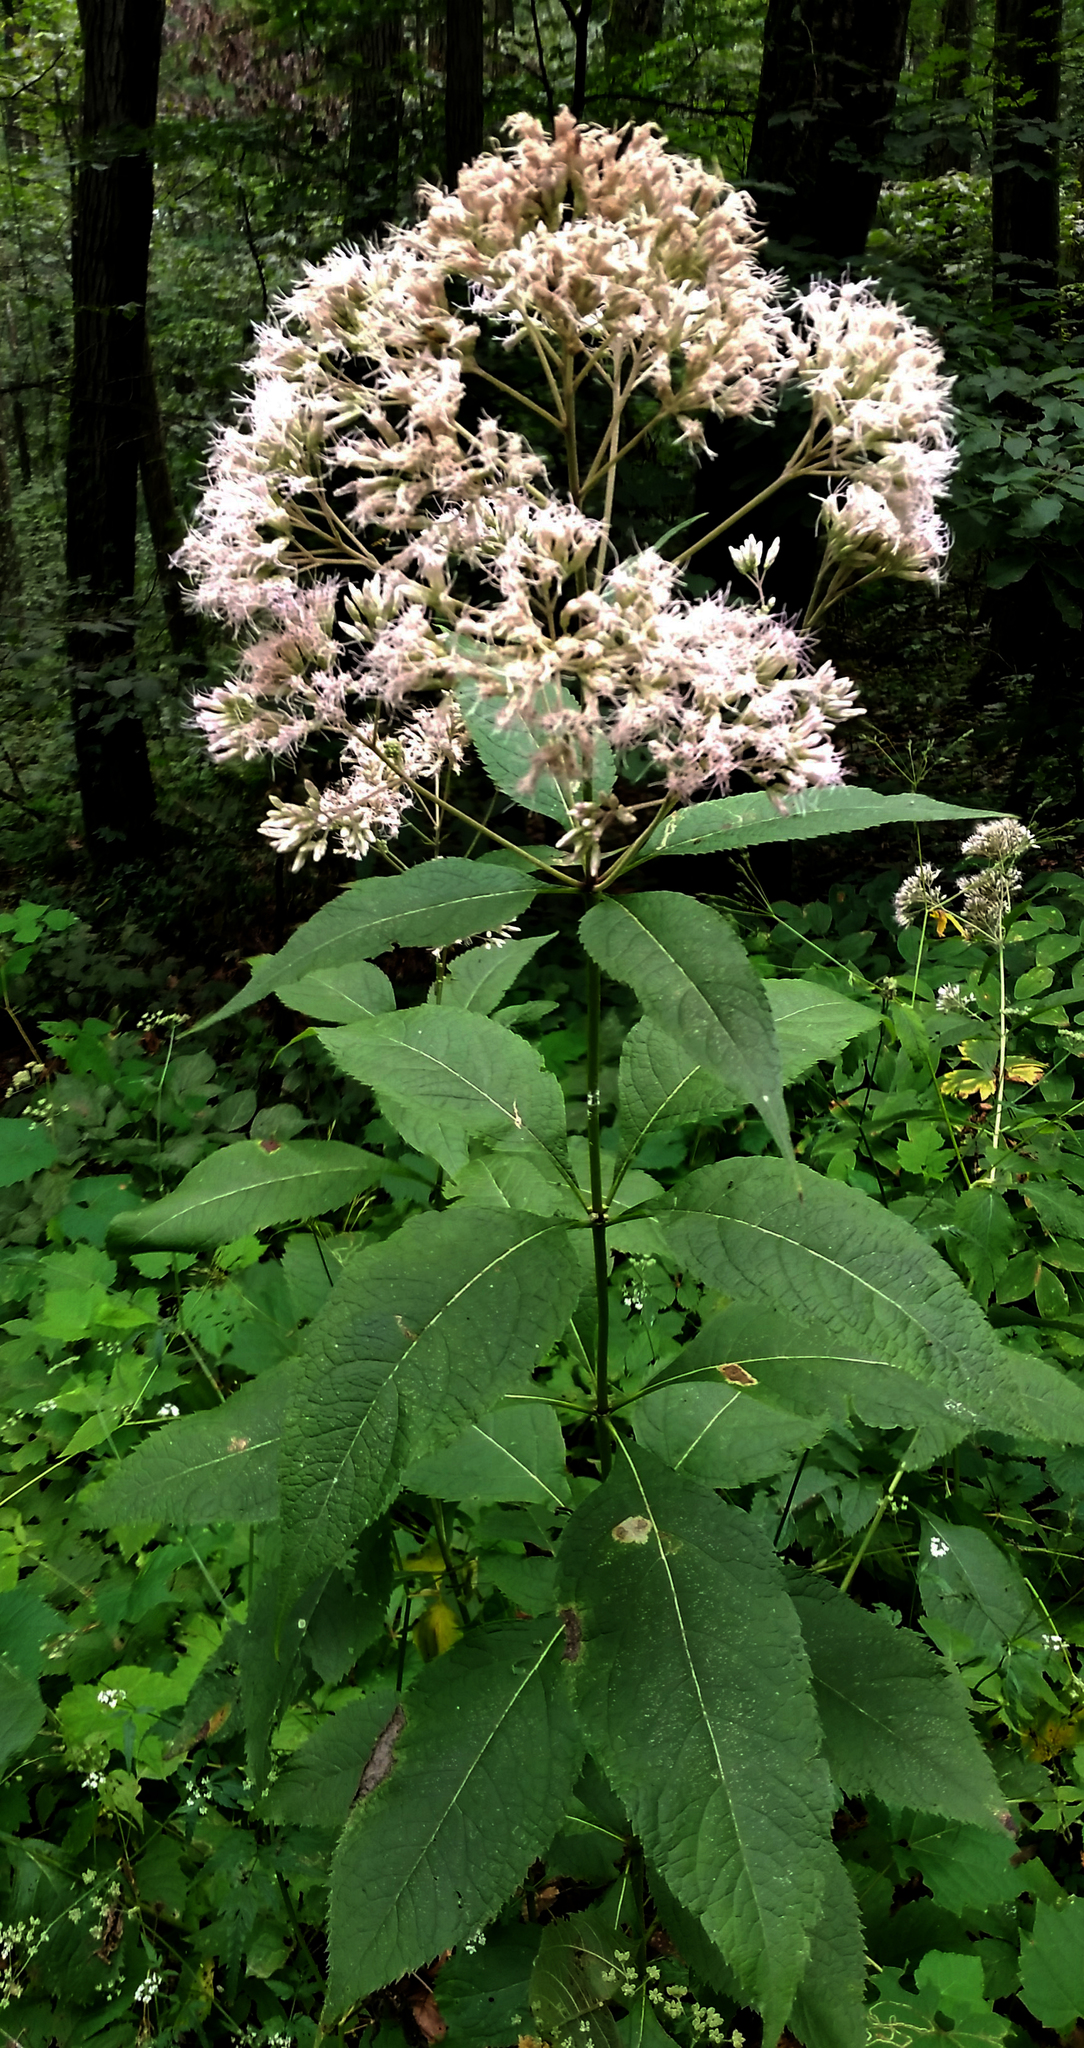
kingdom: Plantae
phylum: Tracheophyta
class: Magnoliopsida
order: Asterales
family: Asteraceae
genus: Eutrochium
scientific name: Eutrochium purpureum
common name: Gravelroot
